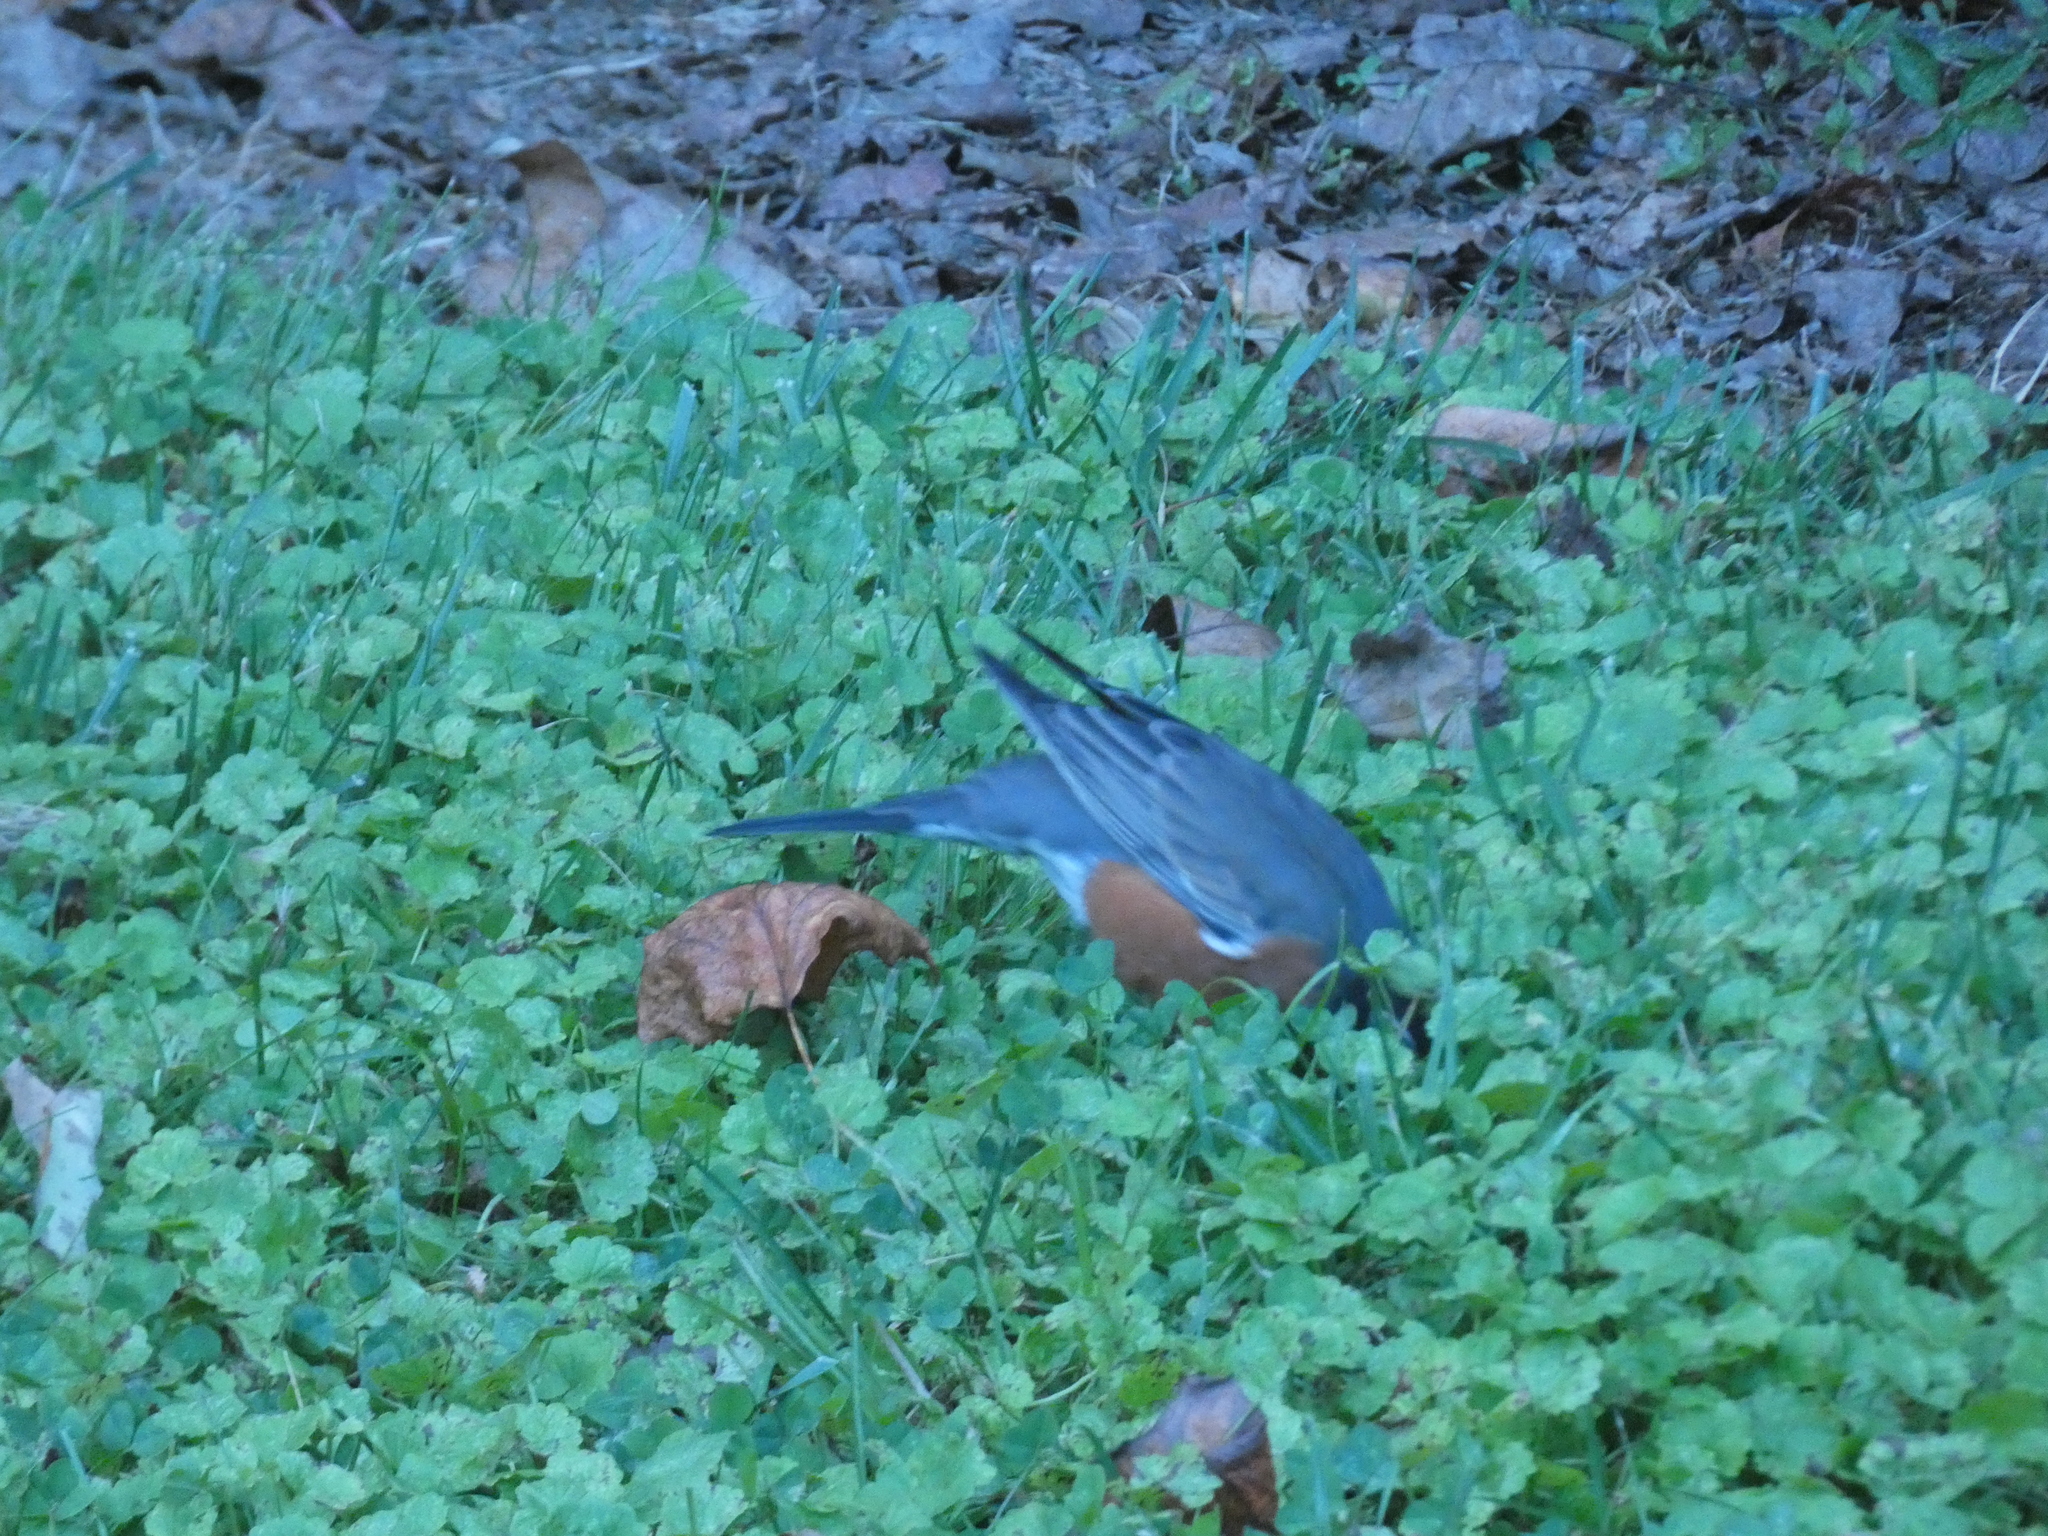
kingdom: Animalia
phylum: Chordata
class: Aves
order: Passeriformes
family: Turdidae
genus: Turdus
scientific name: Turdus migratorius
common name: American robin
